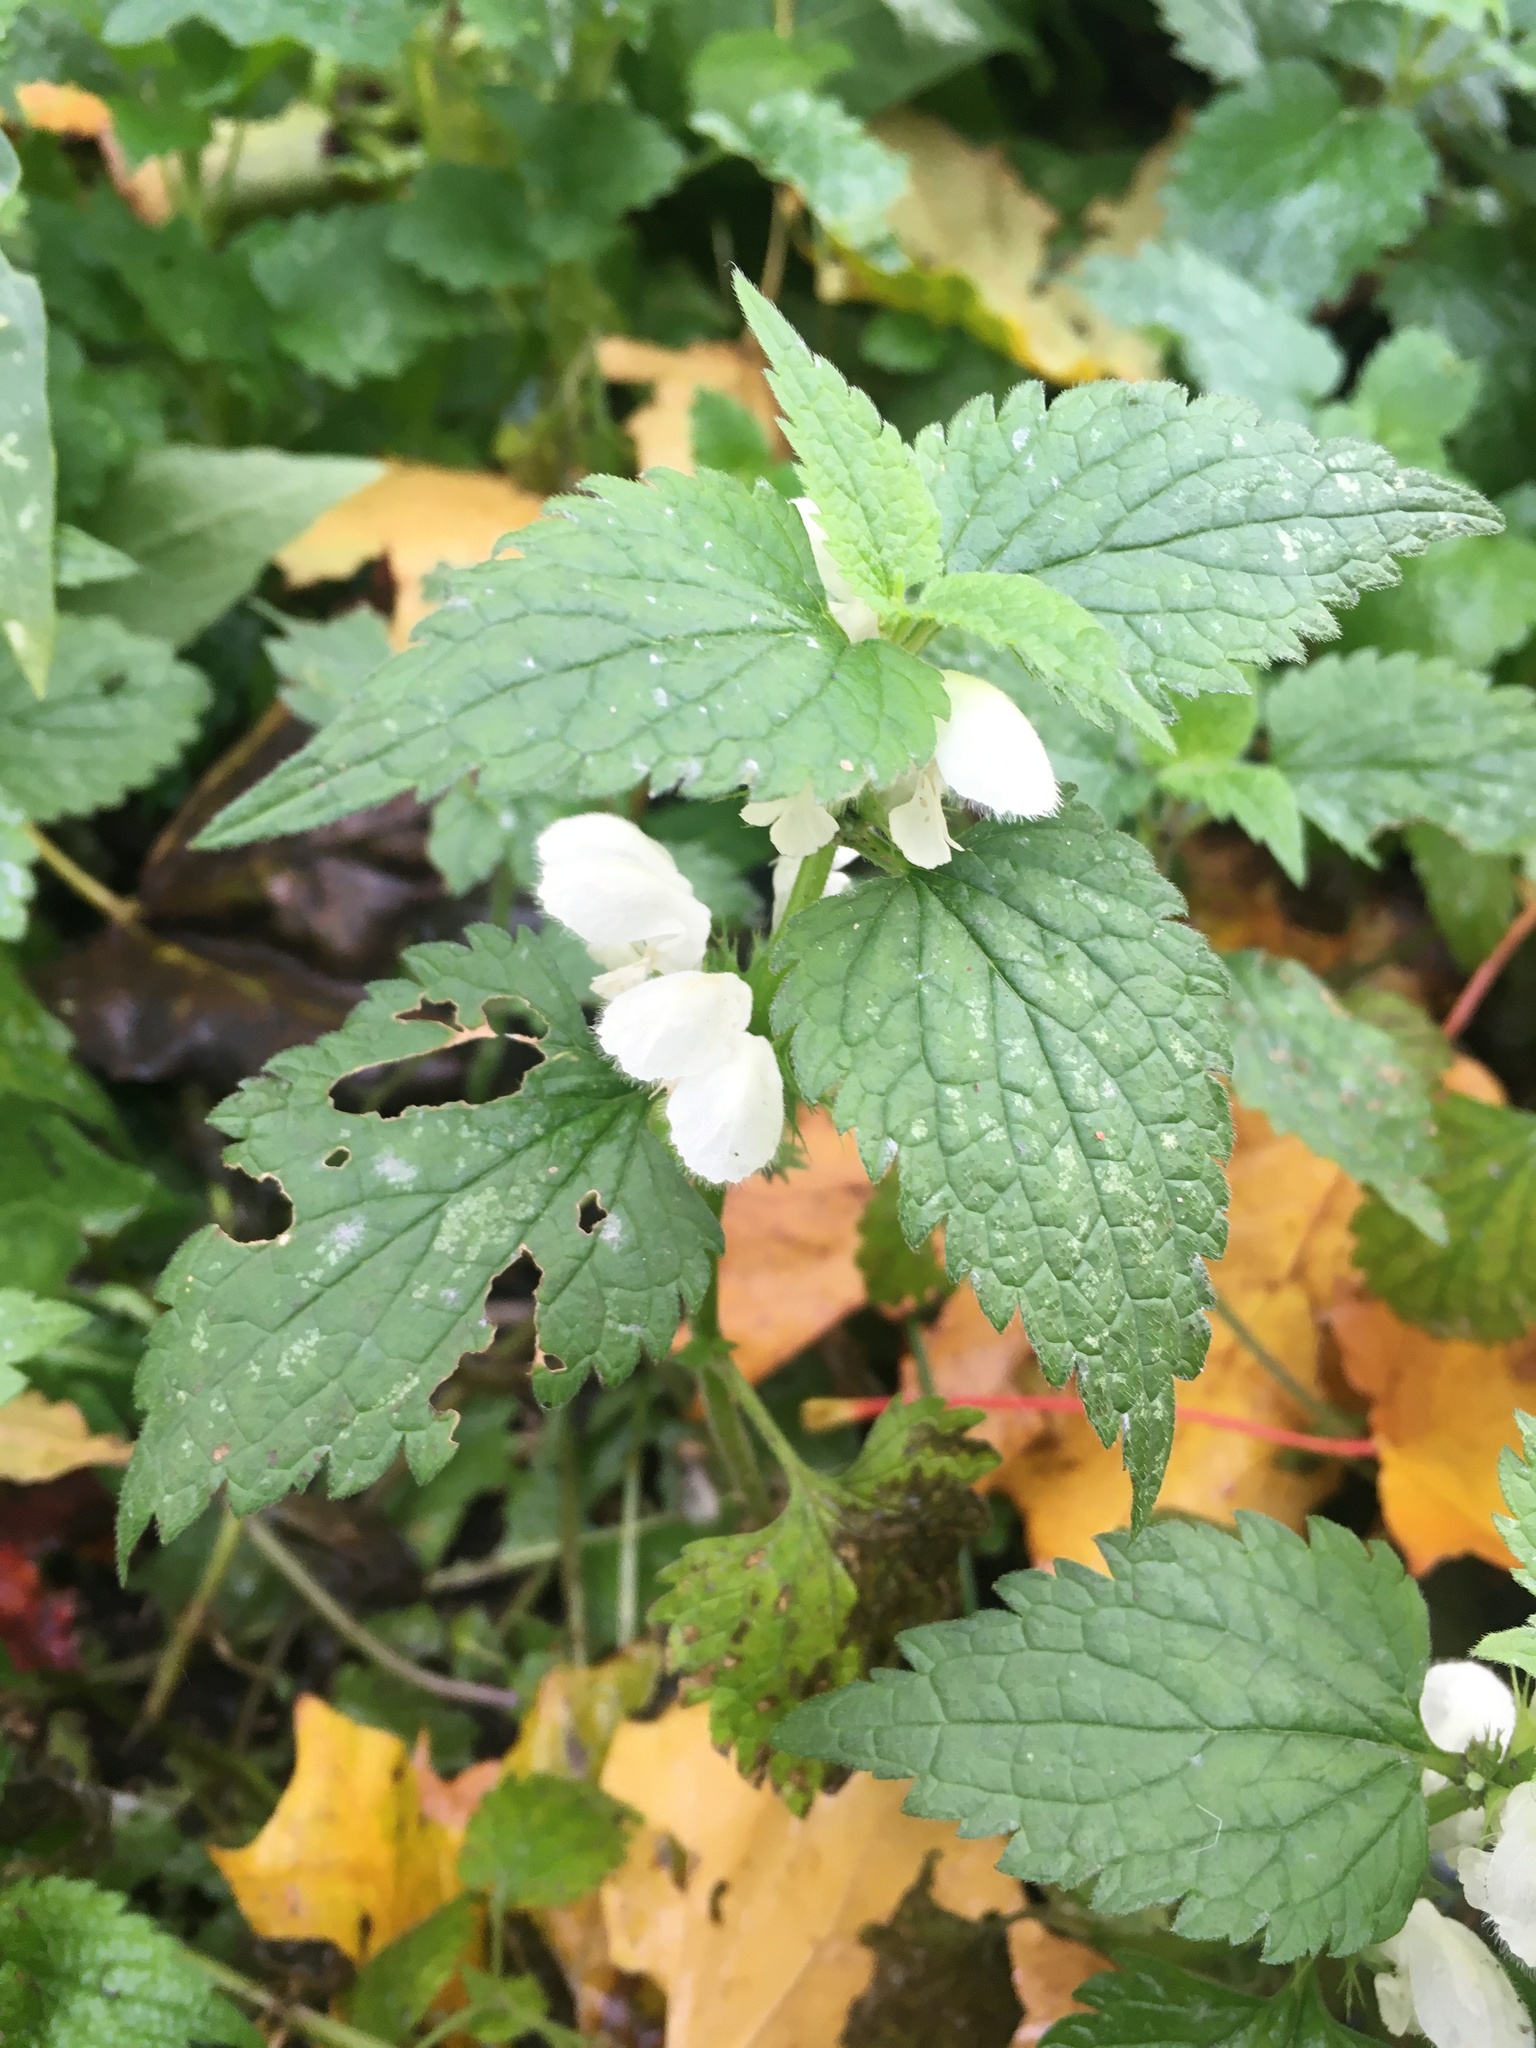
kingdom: Plantae
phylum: Tracheophyta
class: Magnoliopsida
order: Lamiales
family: Lamiaceae
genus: Lamium
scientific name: Lamium album
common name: White dead-nettle
